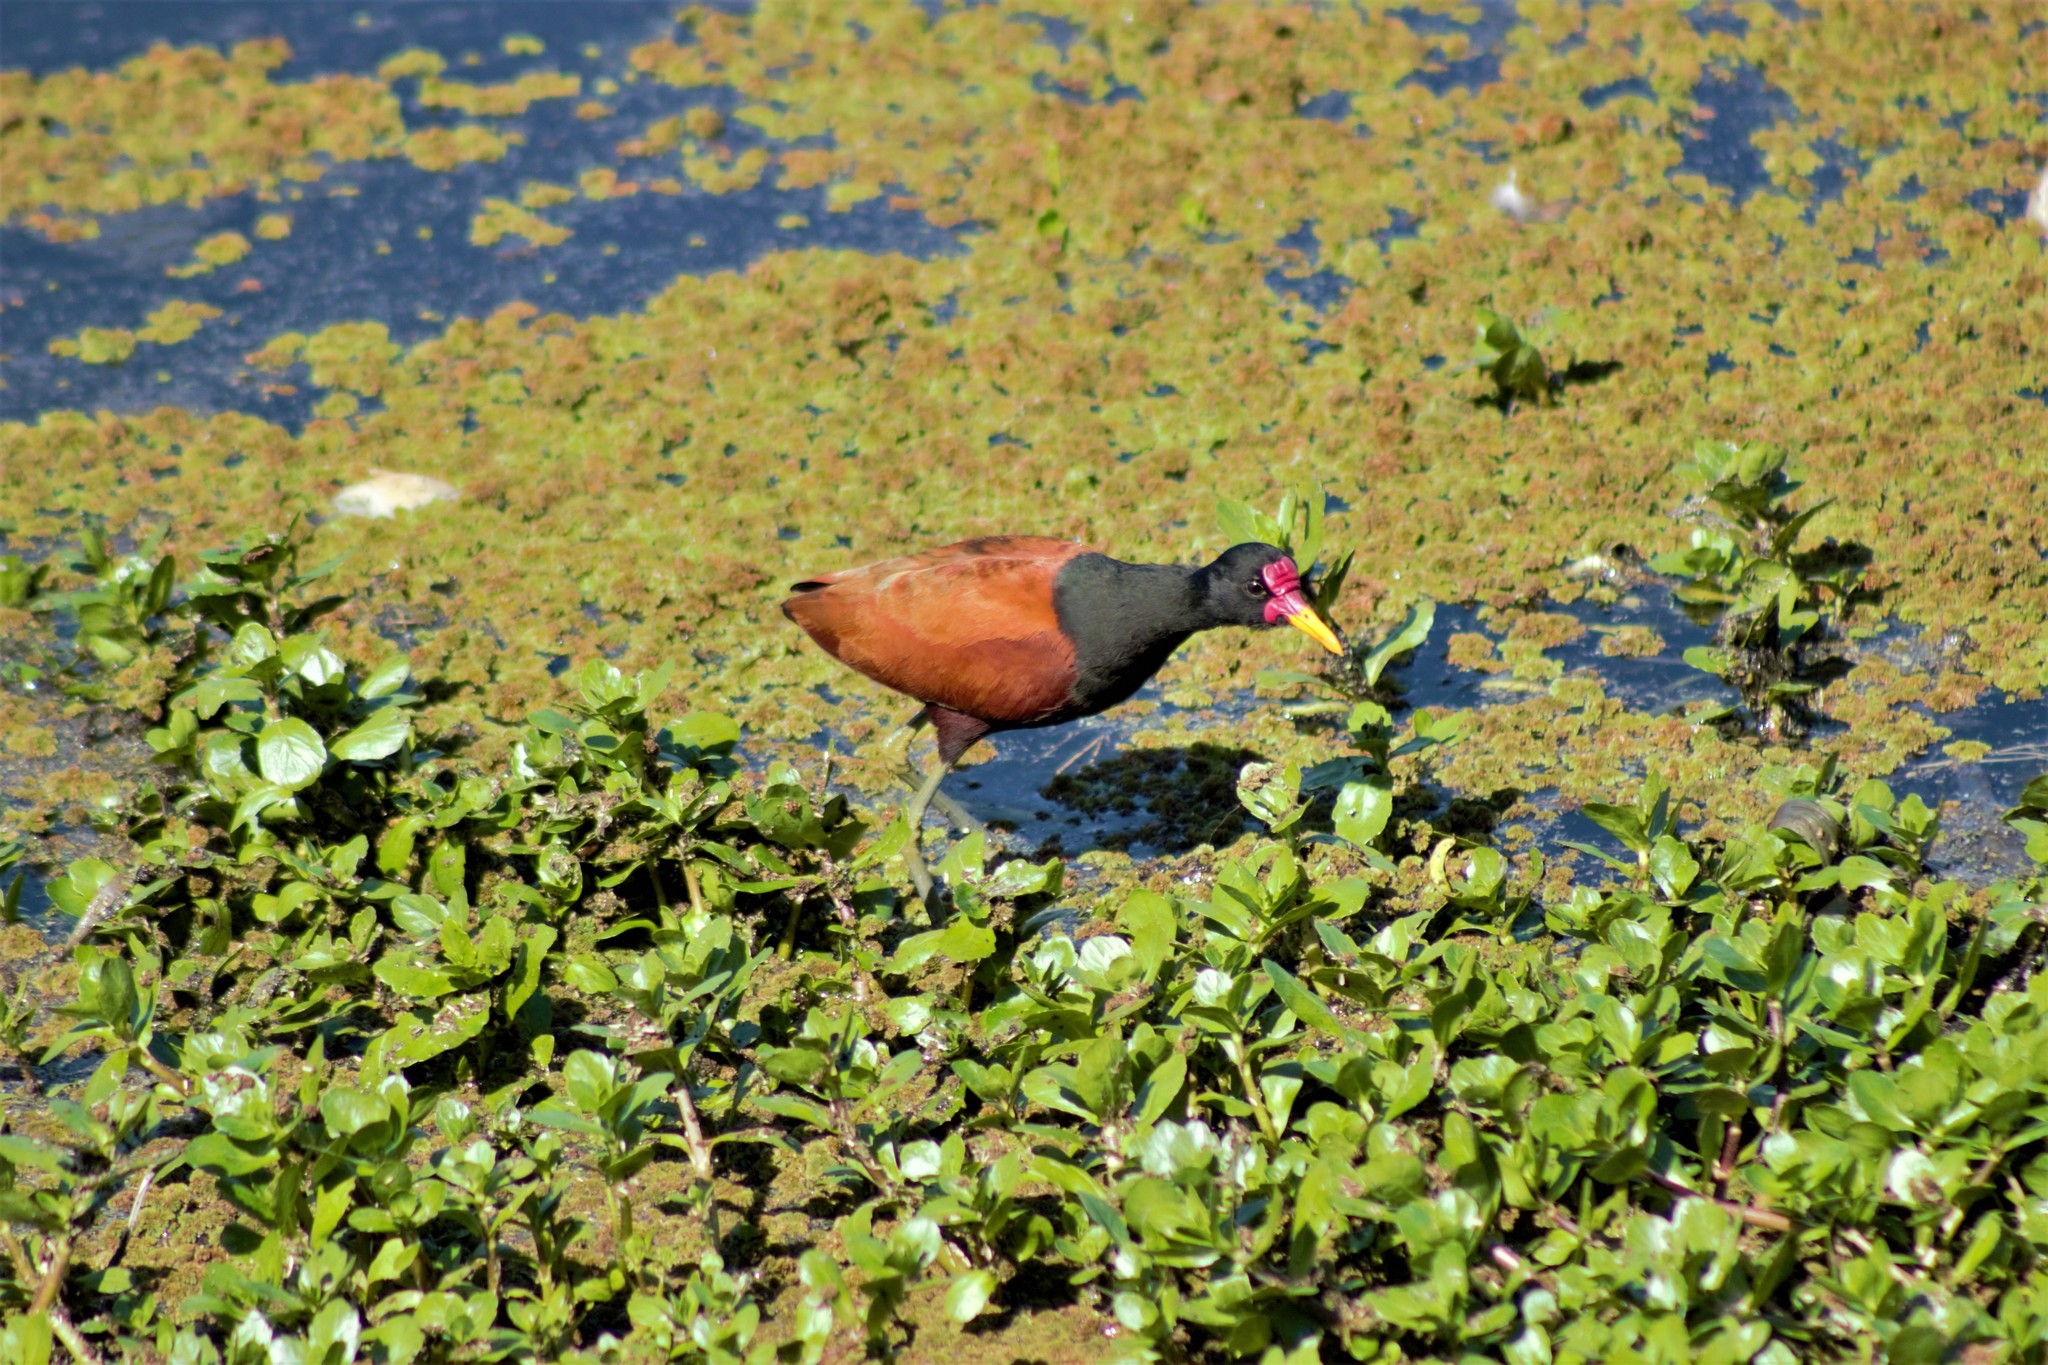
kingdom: Animalia
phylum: Chordata
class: Aves
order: Charadriiformes
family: Jacanidae
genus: Jacana
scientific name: Jacana jacana
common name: Wattled jacana
